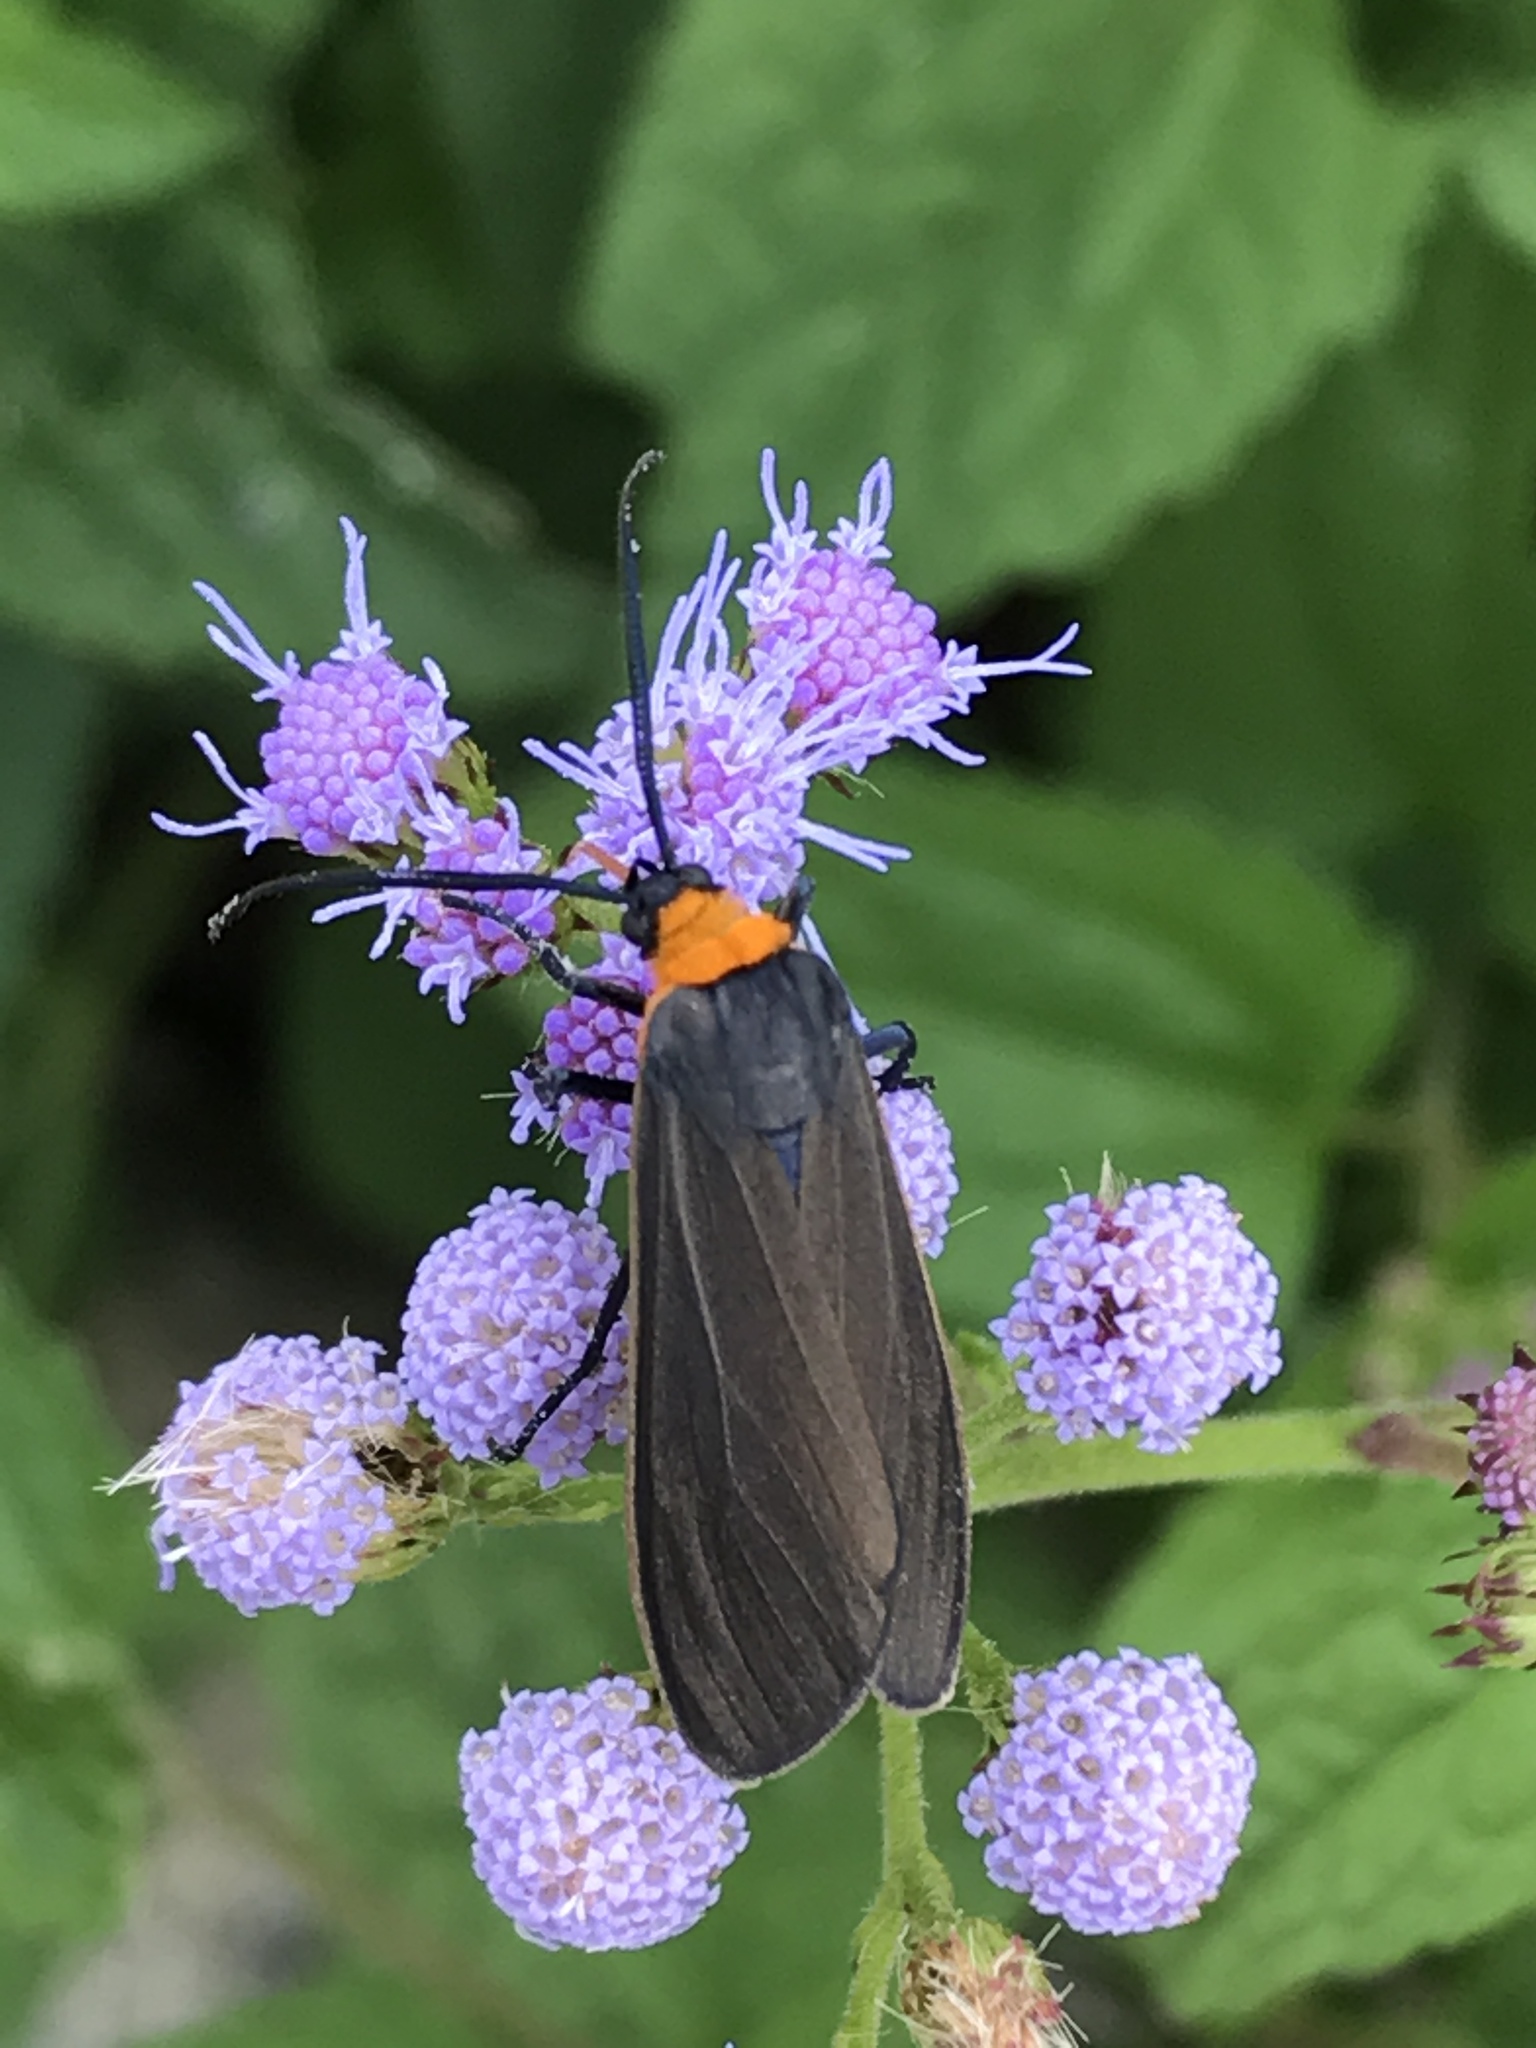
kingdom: Animalia
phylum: Arthropoda
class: Insecta
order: Lepidoptera
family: Erebidae
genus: Cisseps
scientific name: Cisseps fulvicollis
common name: Yellow-collared scape moth
